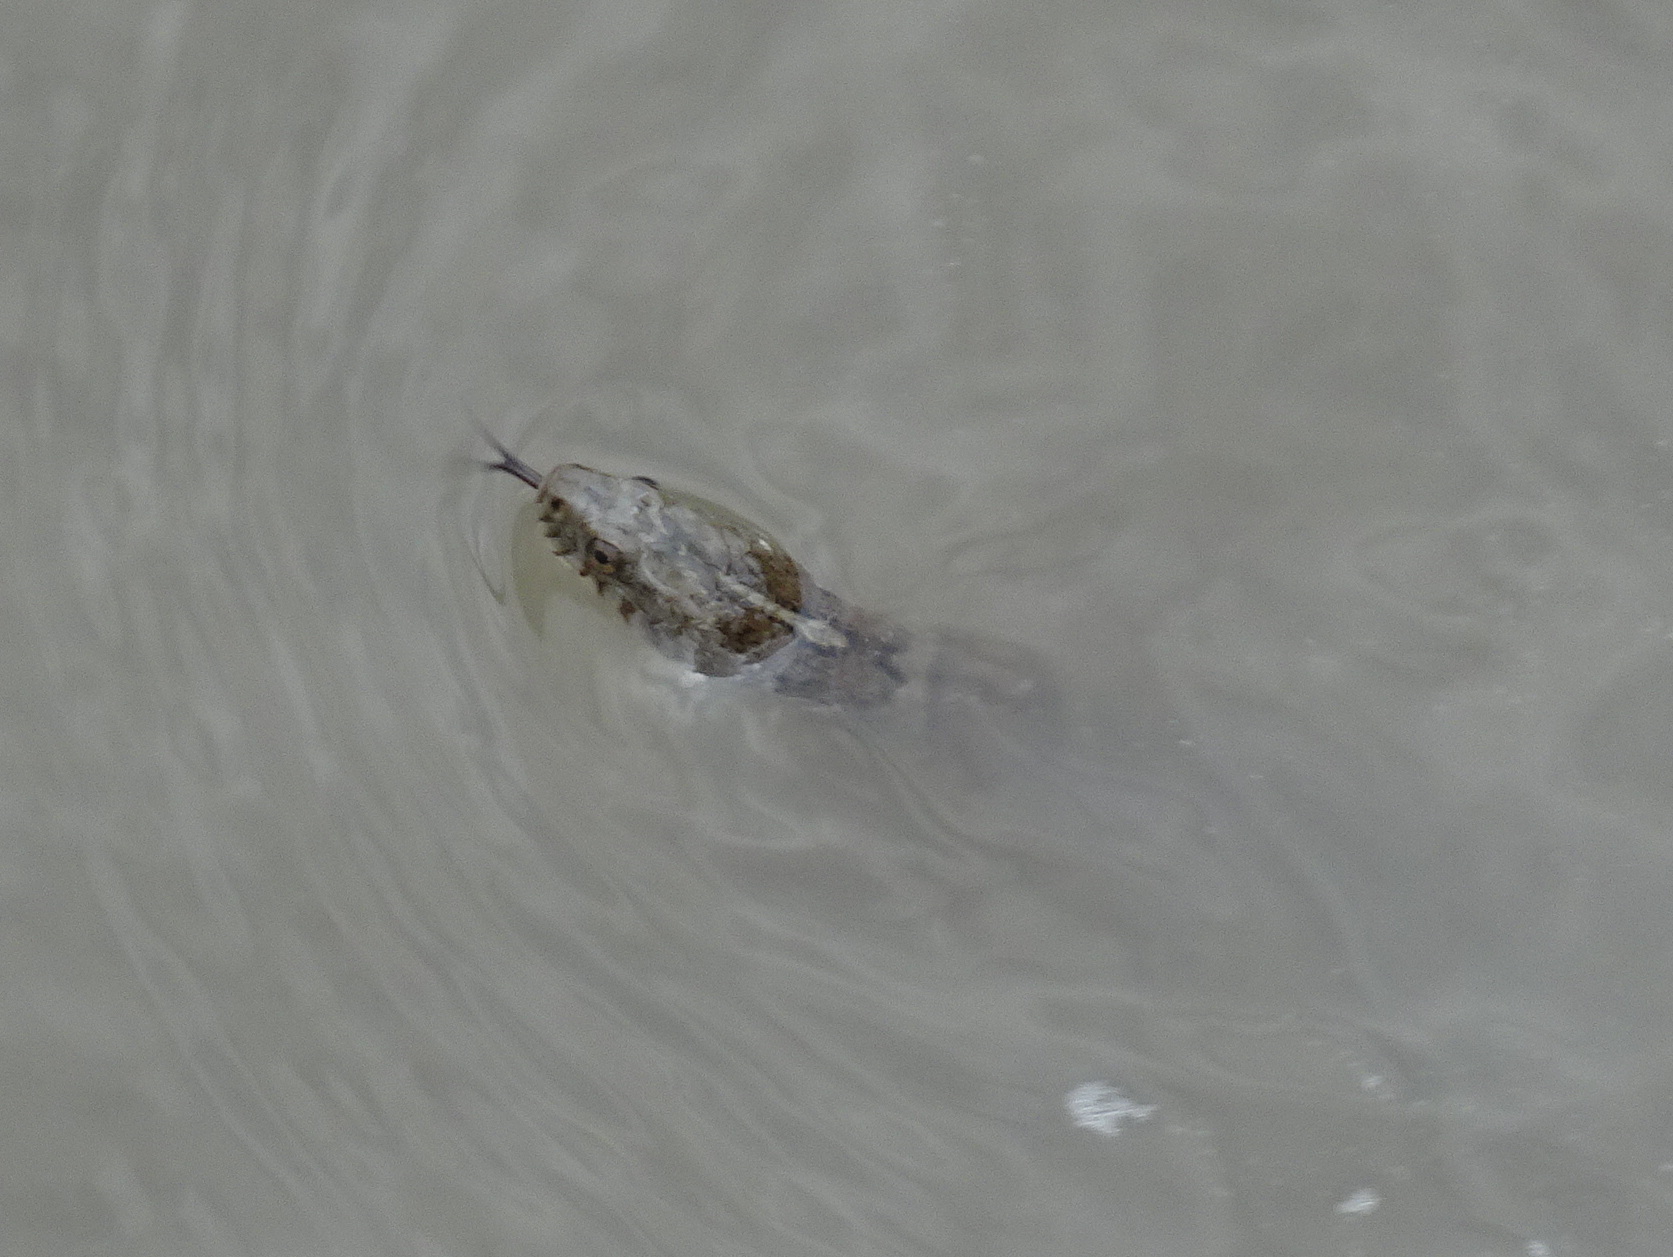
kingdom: Animalia
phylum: Chordata
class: Squamata
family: Colubridae
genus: Nerodia
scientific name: Nerodia sipedon
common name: Northern water snake
